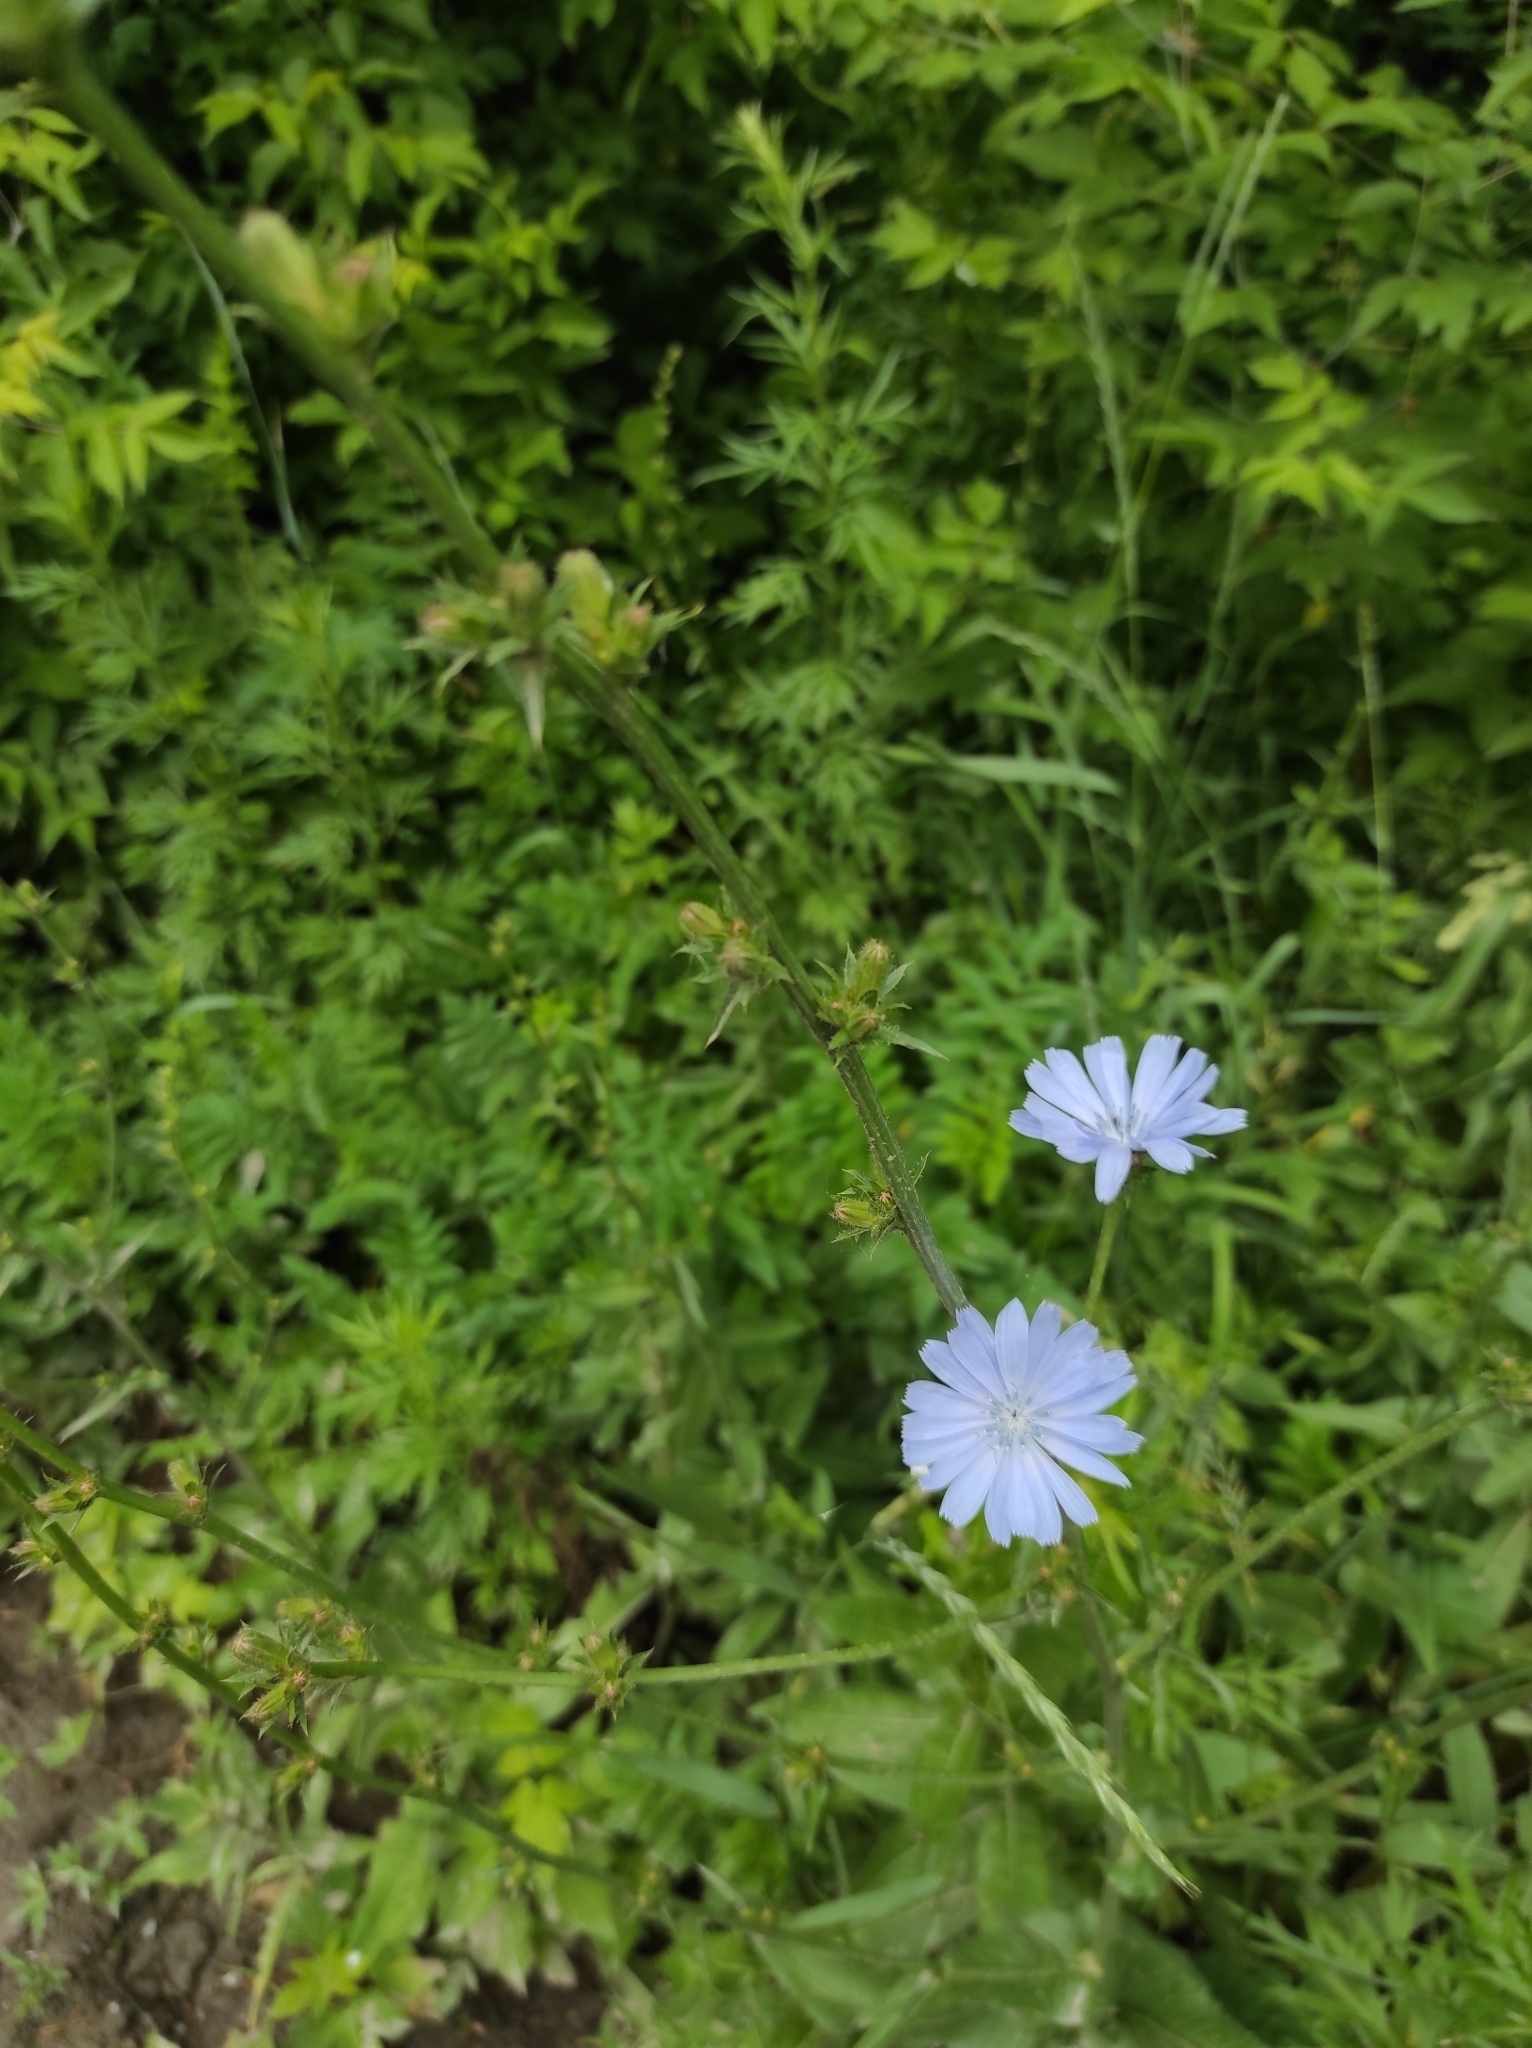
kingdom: Plantae
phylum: Tracheophyta
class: Magnoliopsida
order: Asterales
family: Asteraceae
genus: Cichorium
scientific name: Cichorium intybus
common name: Chicory
